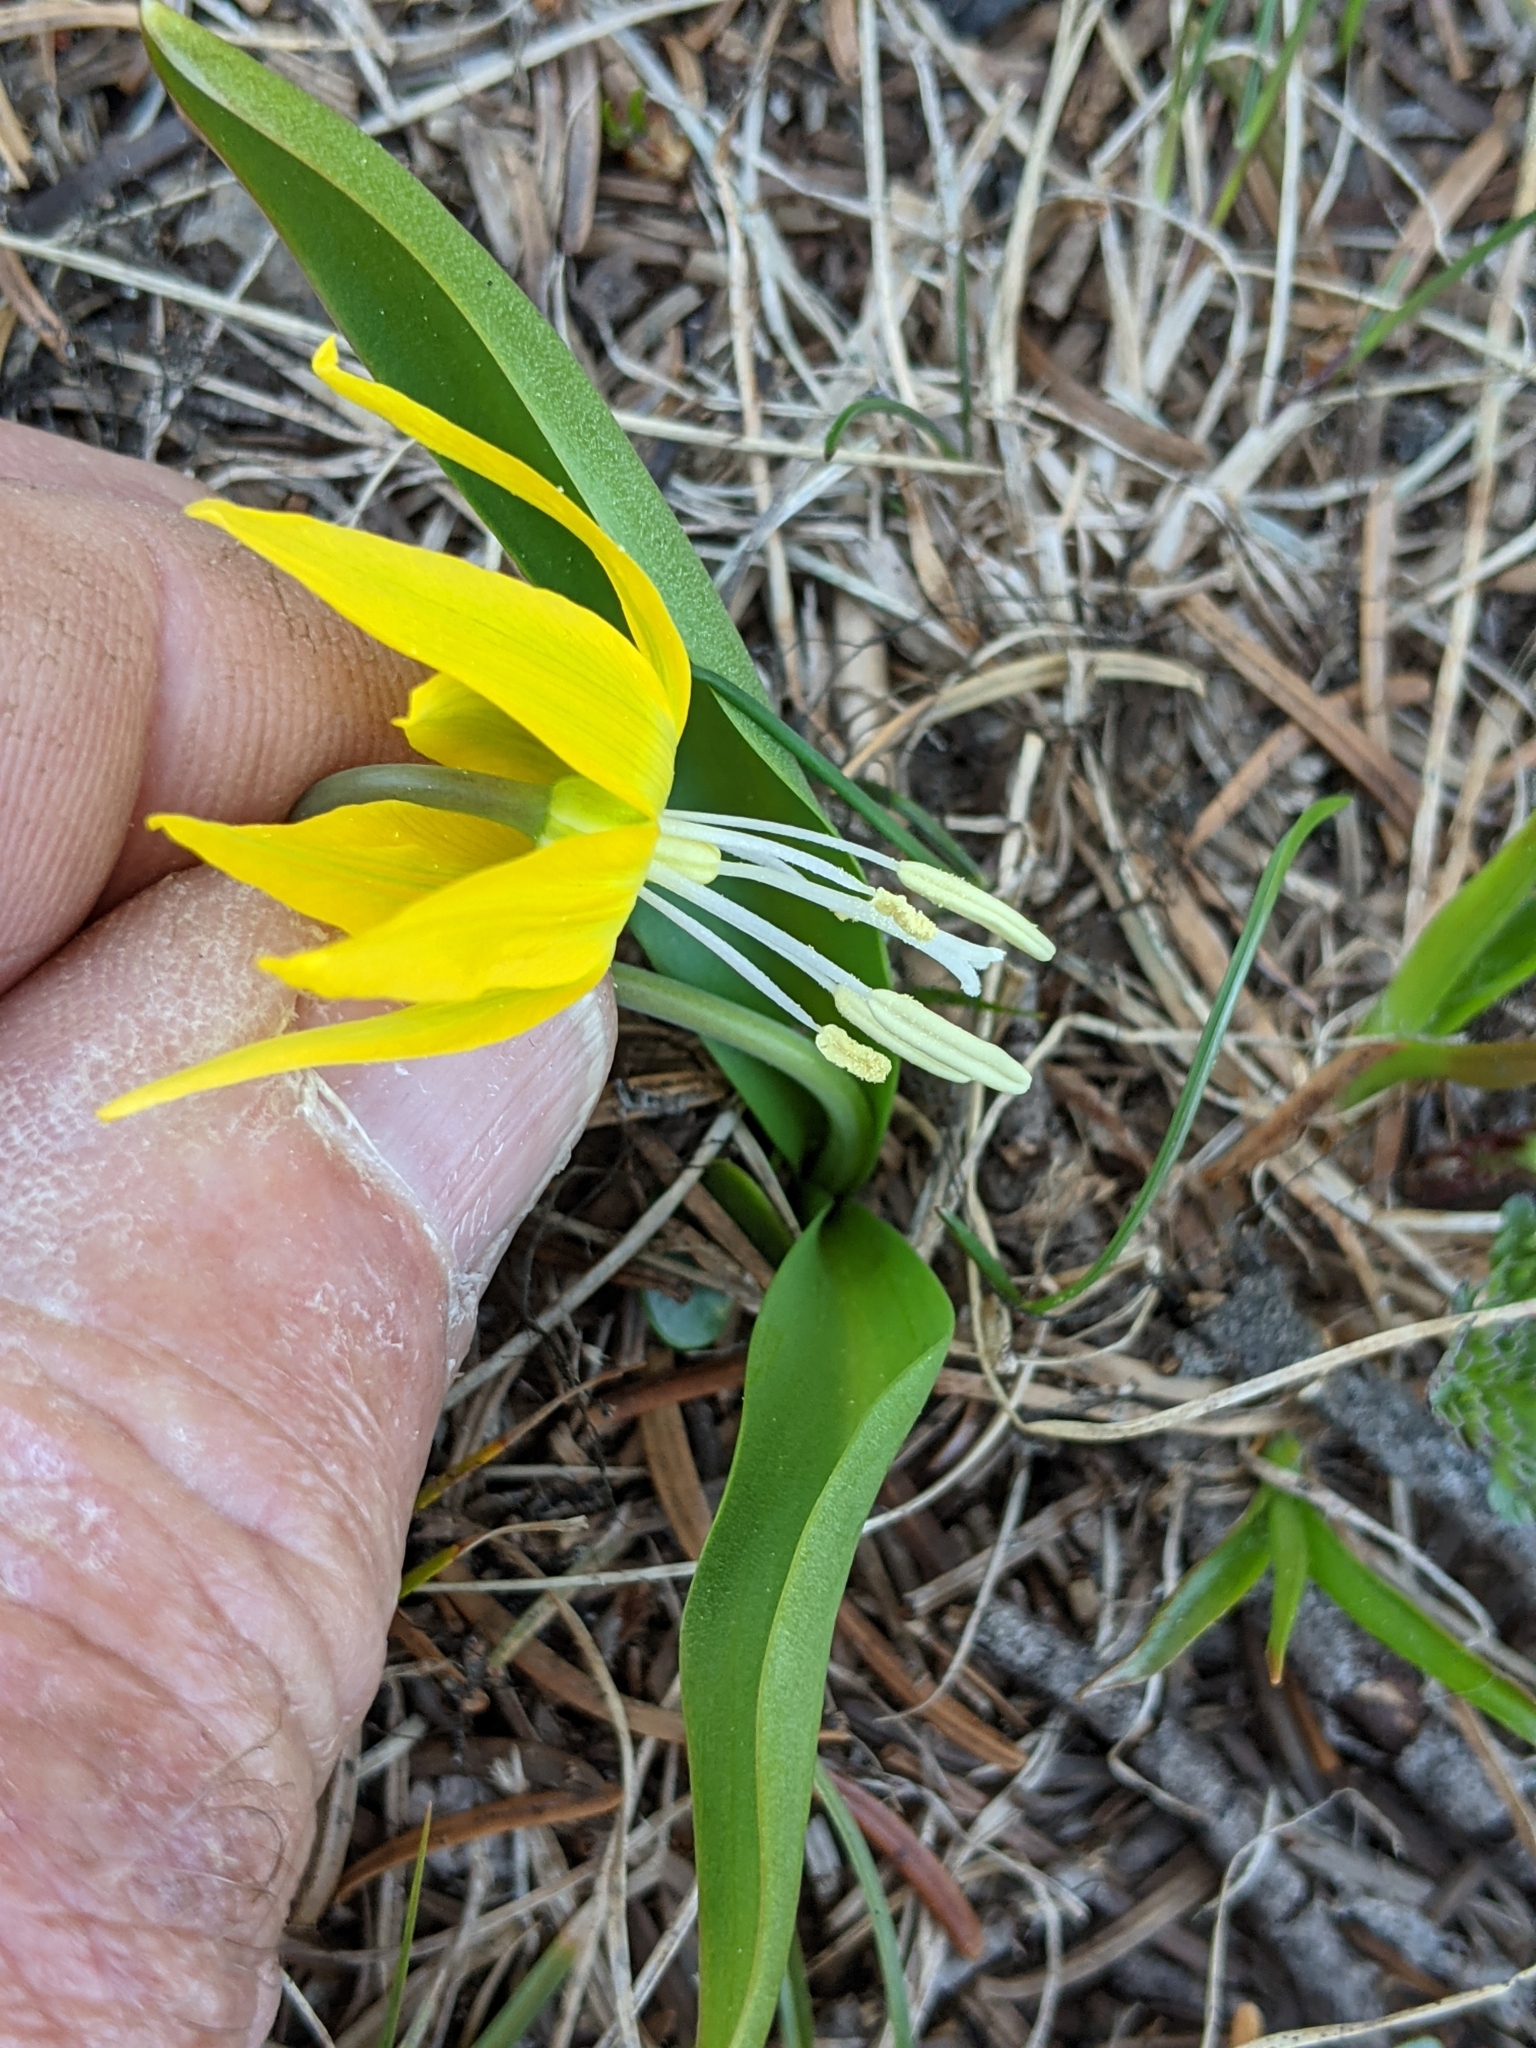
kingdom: Plantae
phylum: Tracheophyta
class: Liliopsida
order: Liliales
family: Liliaceae
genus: Erythronium
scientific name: Erythronium grandiflorum
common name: Avalanche-lily
